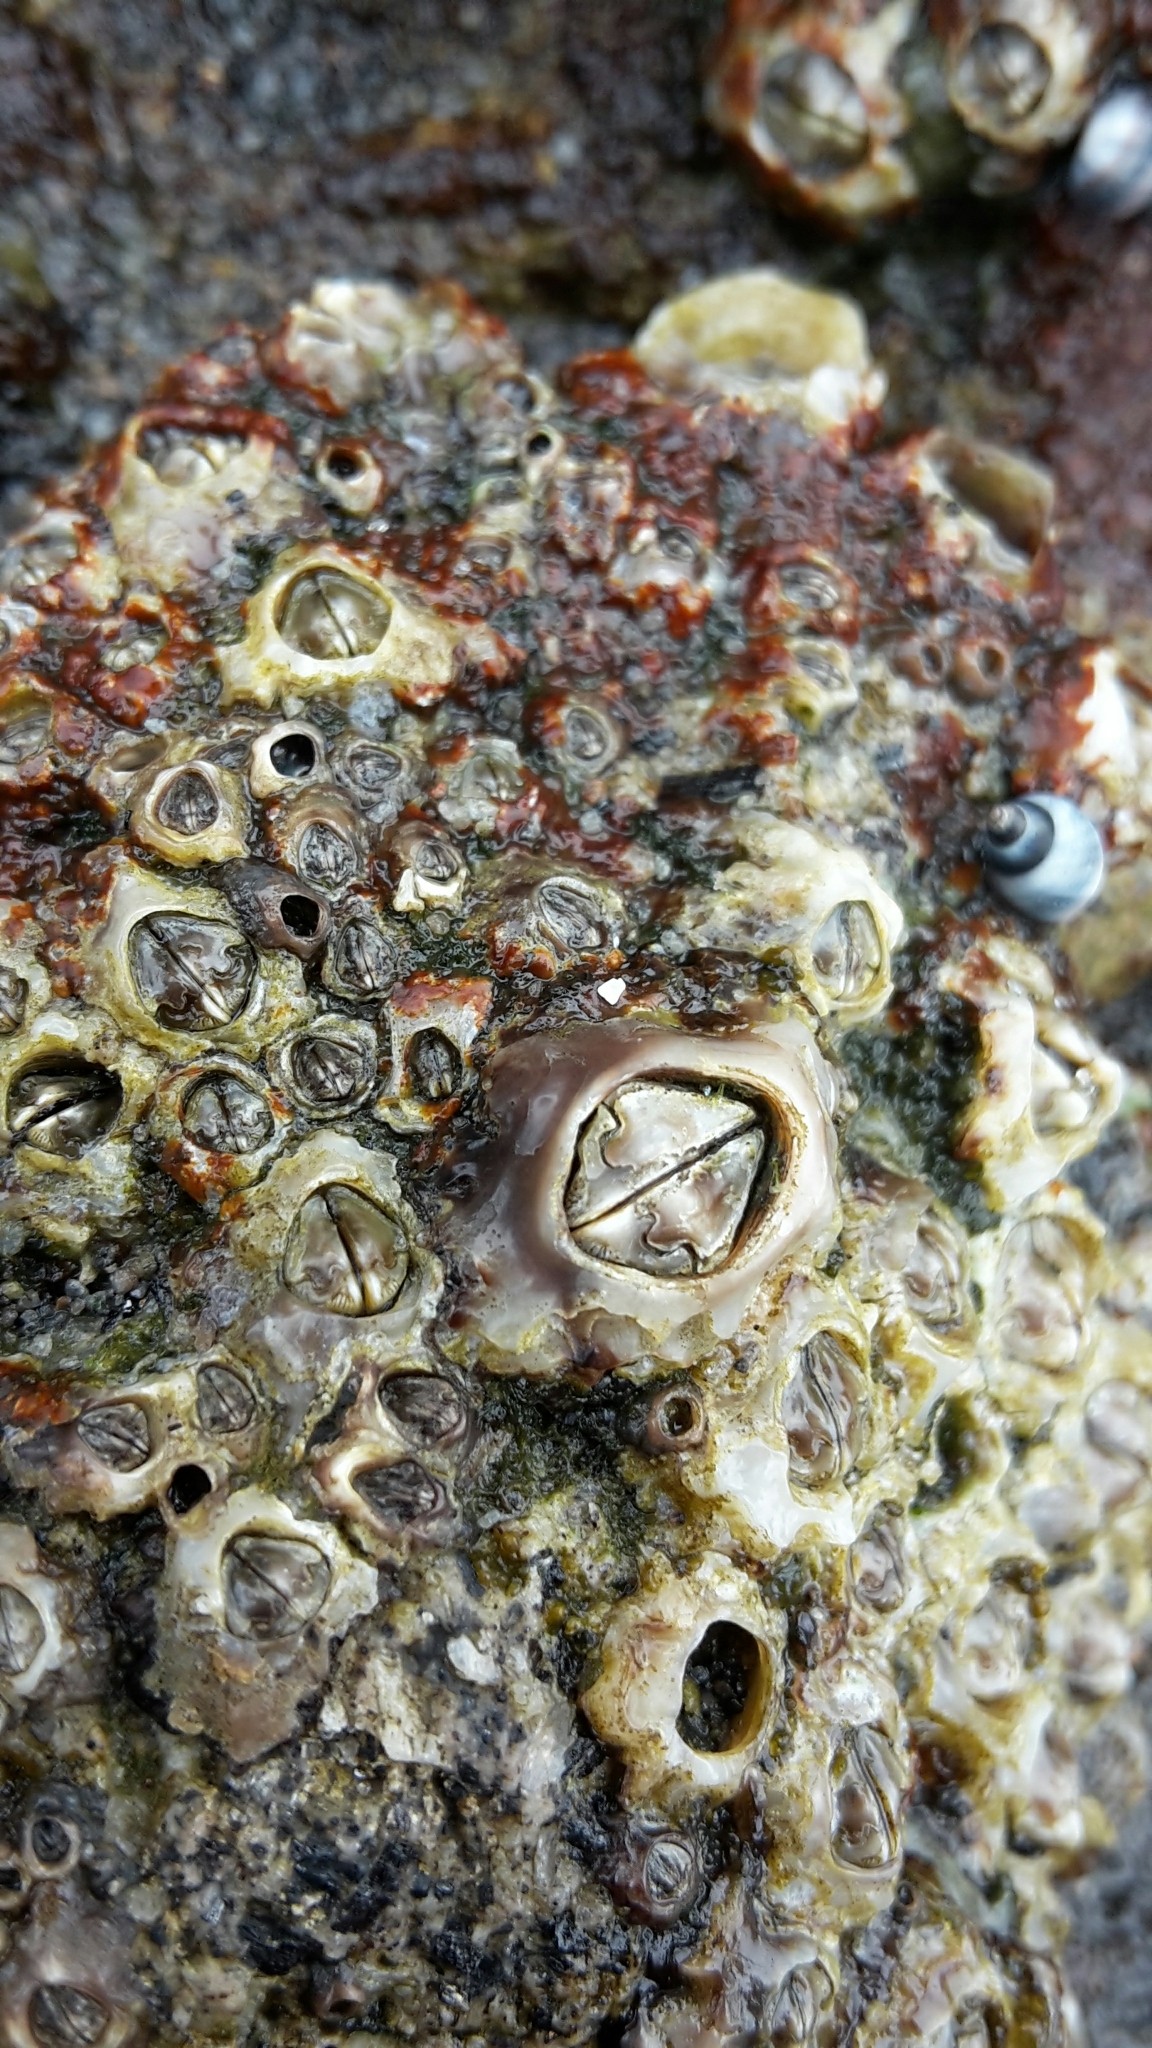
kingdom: Animalia
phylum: Arthropoda
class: Maxillopoda
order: Sessilia
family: Chthamalidae
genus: Chamaesipho
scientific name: Chamaesipho brunnea
